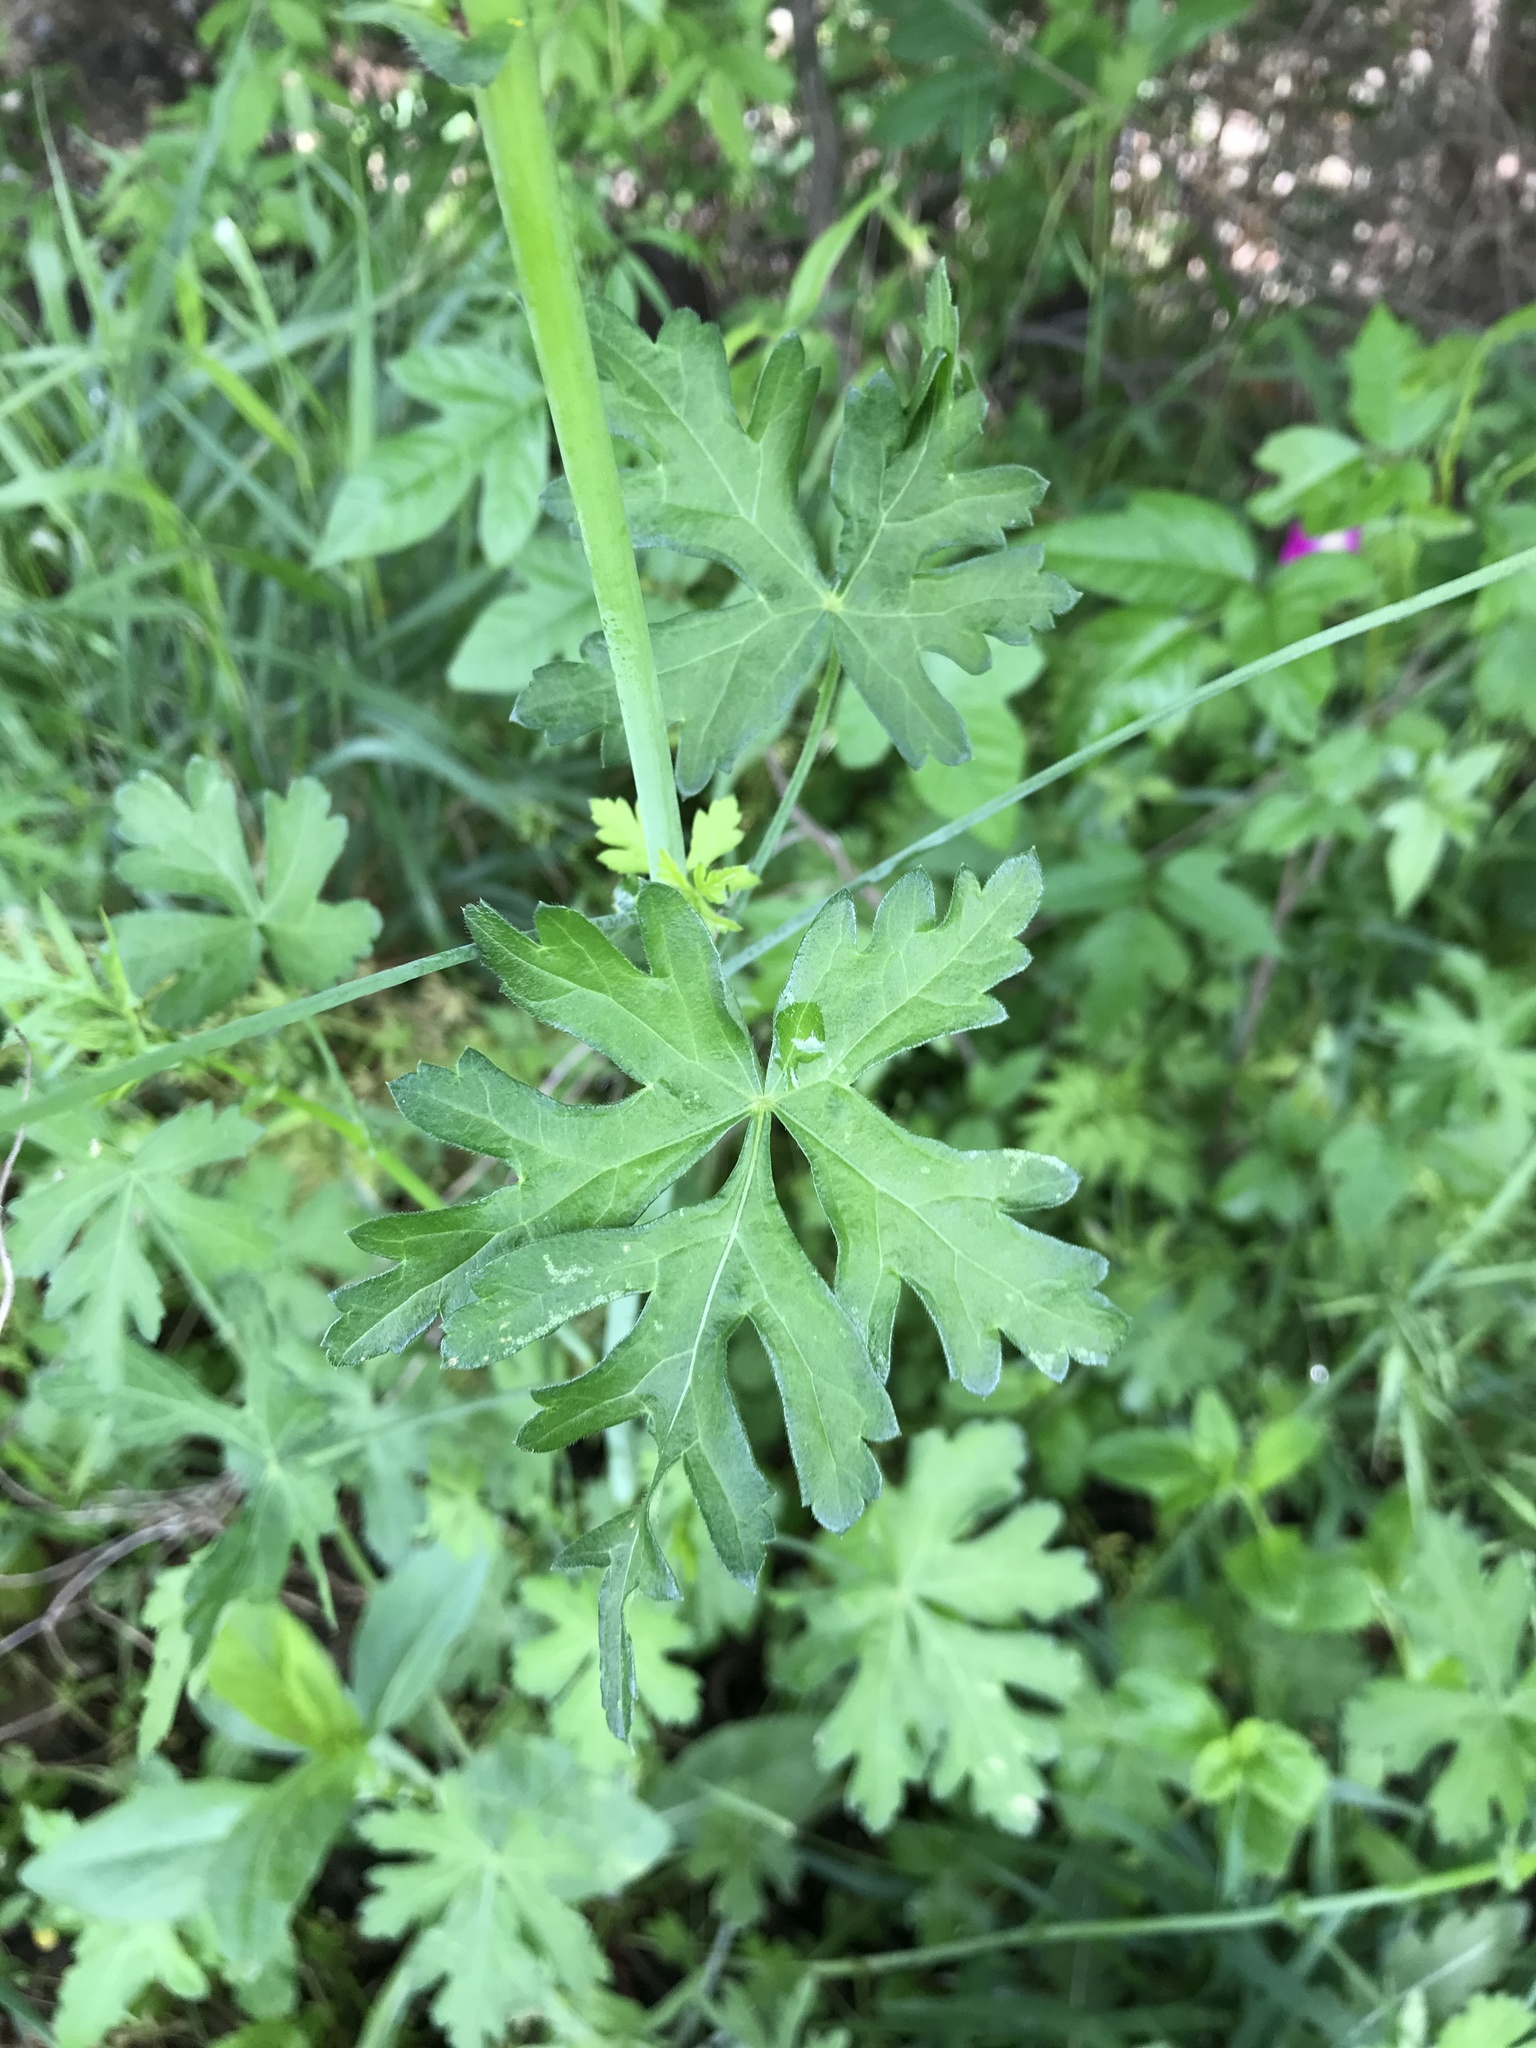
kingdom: Plantae
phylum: Tracheophyta
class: Magnoliopsida
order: Malvales
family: Malvaceae
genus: Callirhoe
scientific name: Callirhoe leiocarpa
